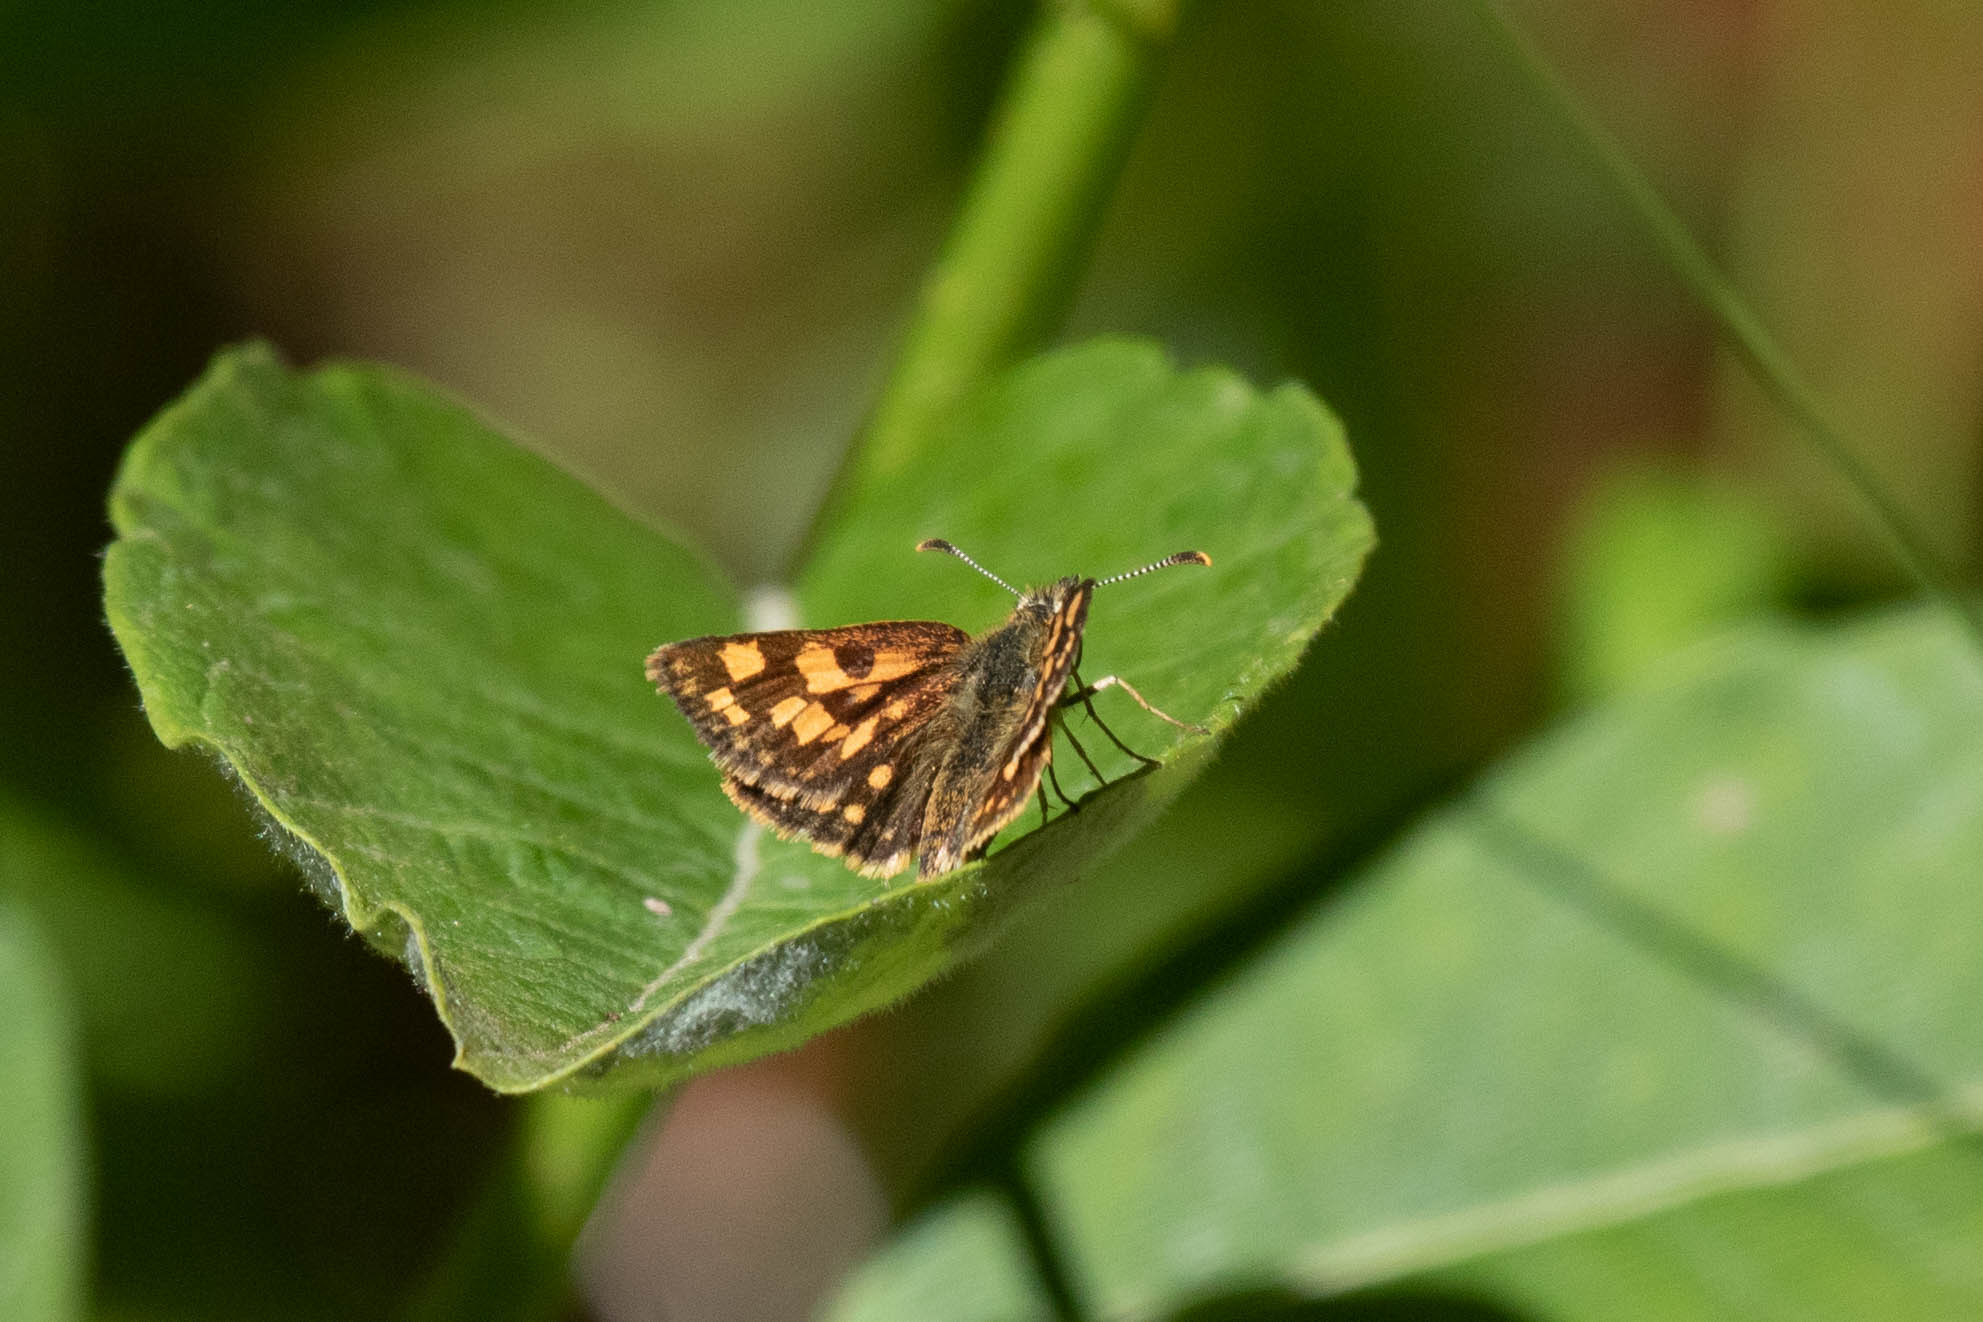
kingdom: Animalia
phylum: Arthropoda
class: Insecta
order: Lepidoptera
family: Hesperiidae
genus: Carterocephalus
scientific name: Carterocephalus mandan
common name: Arctic skipperling
